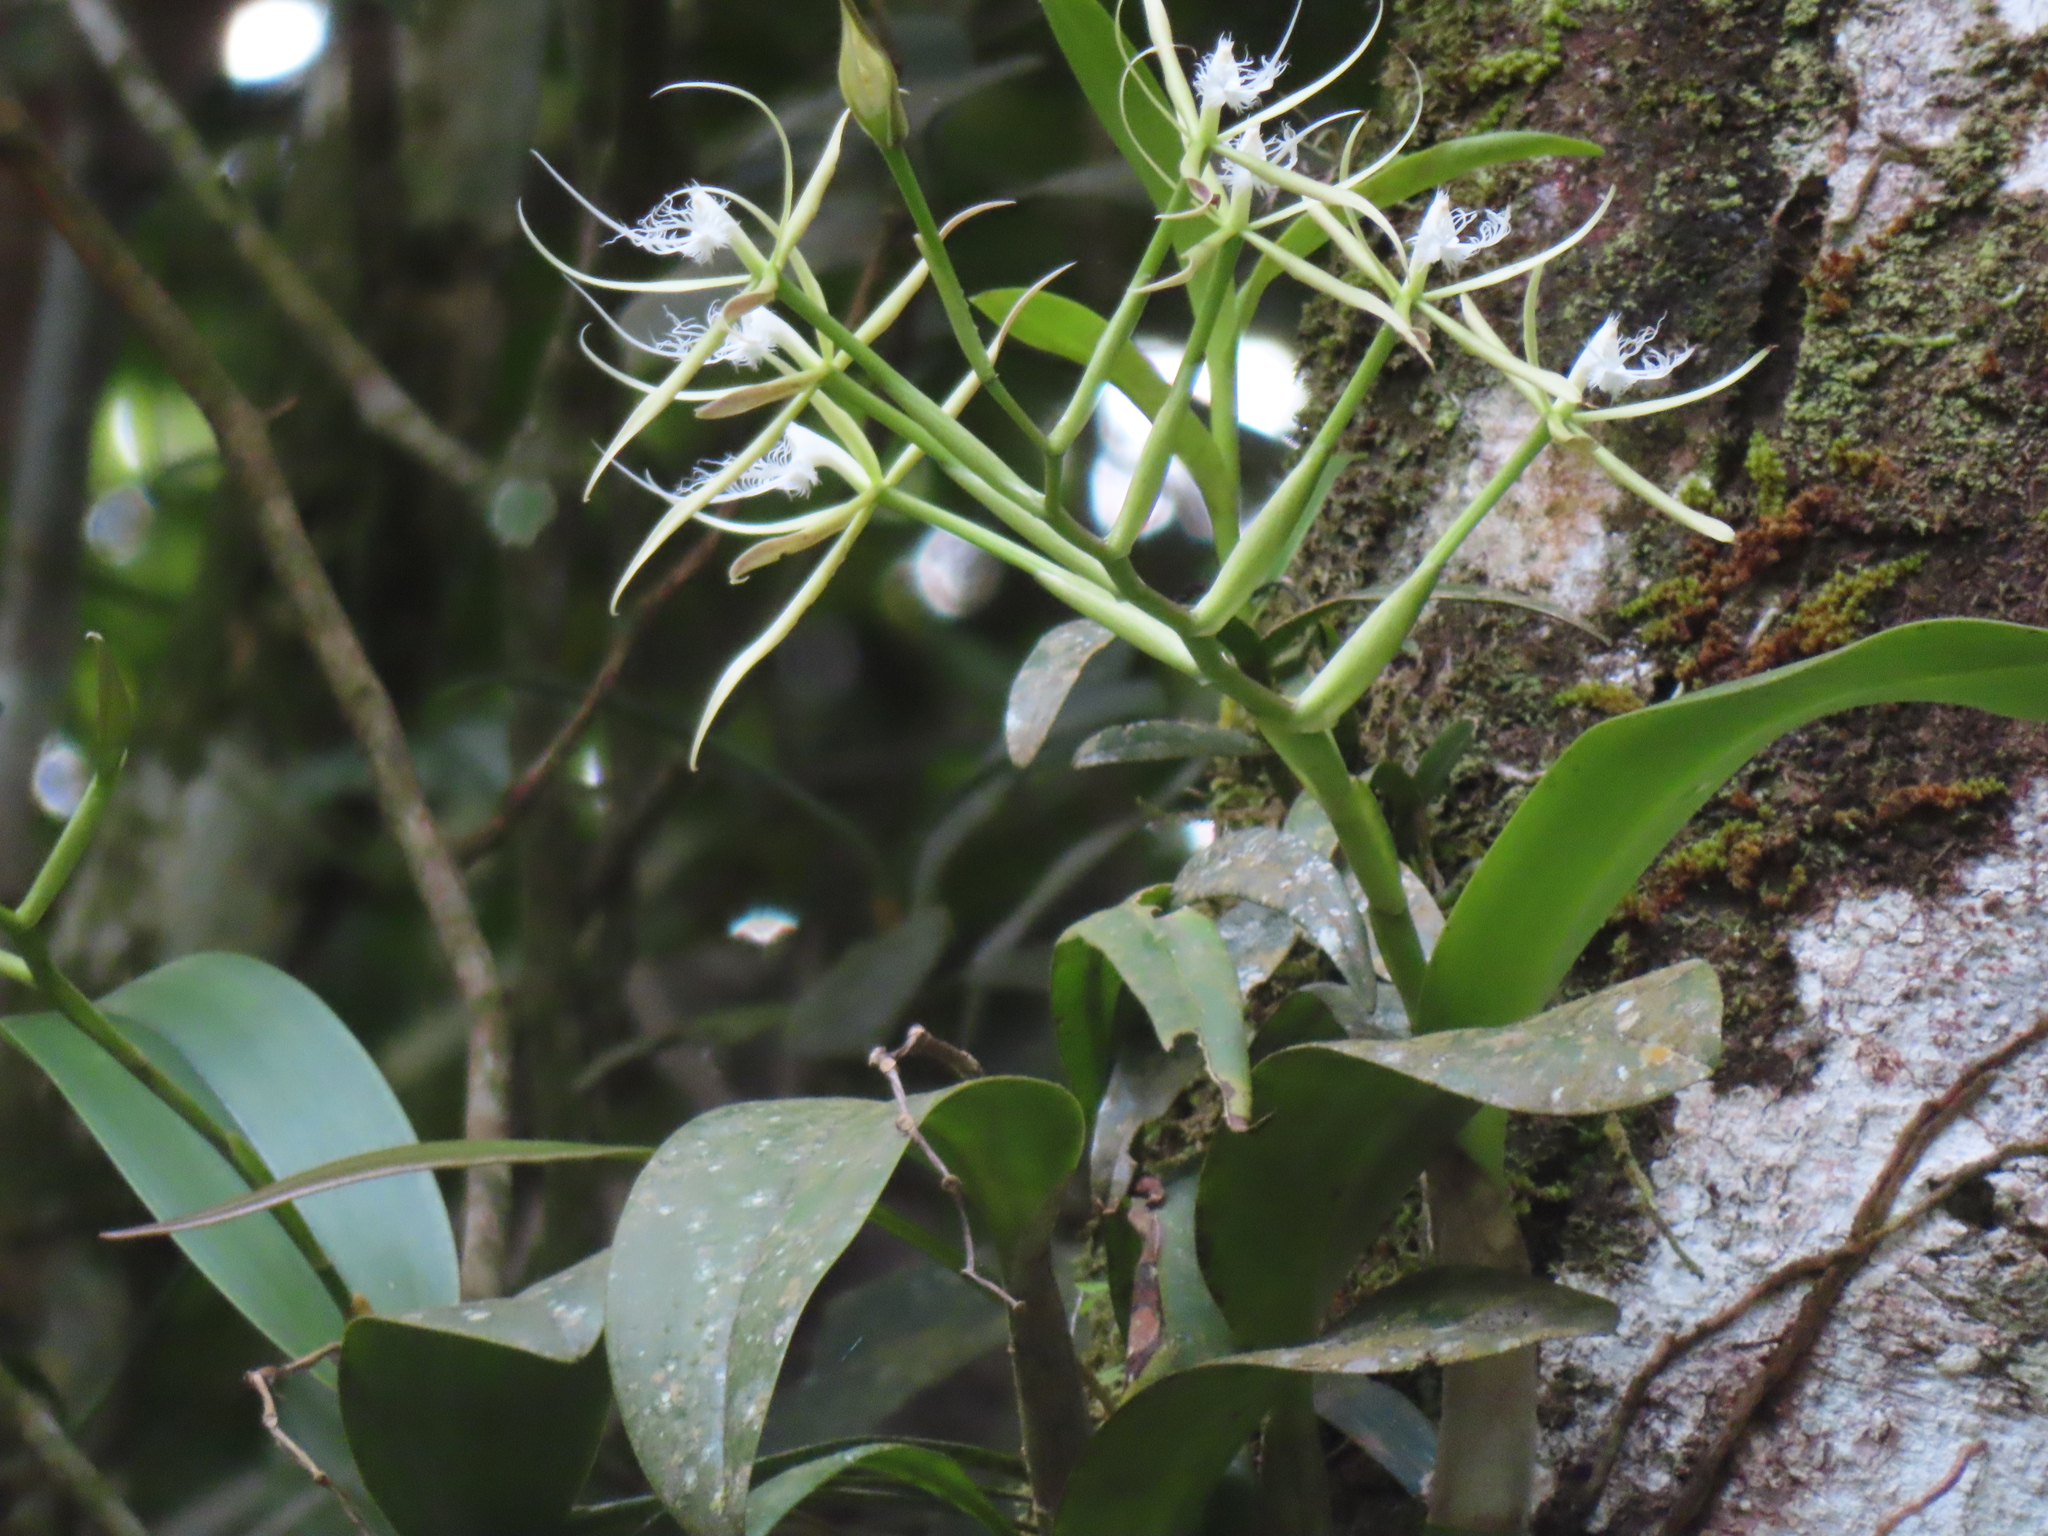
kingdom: Plantae
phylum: Tracheophyta
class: Liliopsida
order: Asparagales
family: Orchidaceae
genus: Epidendrum
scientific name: Epidendrum ciliare
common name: Eyelash orchid
